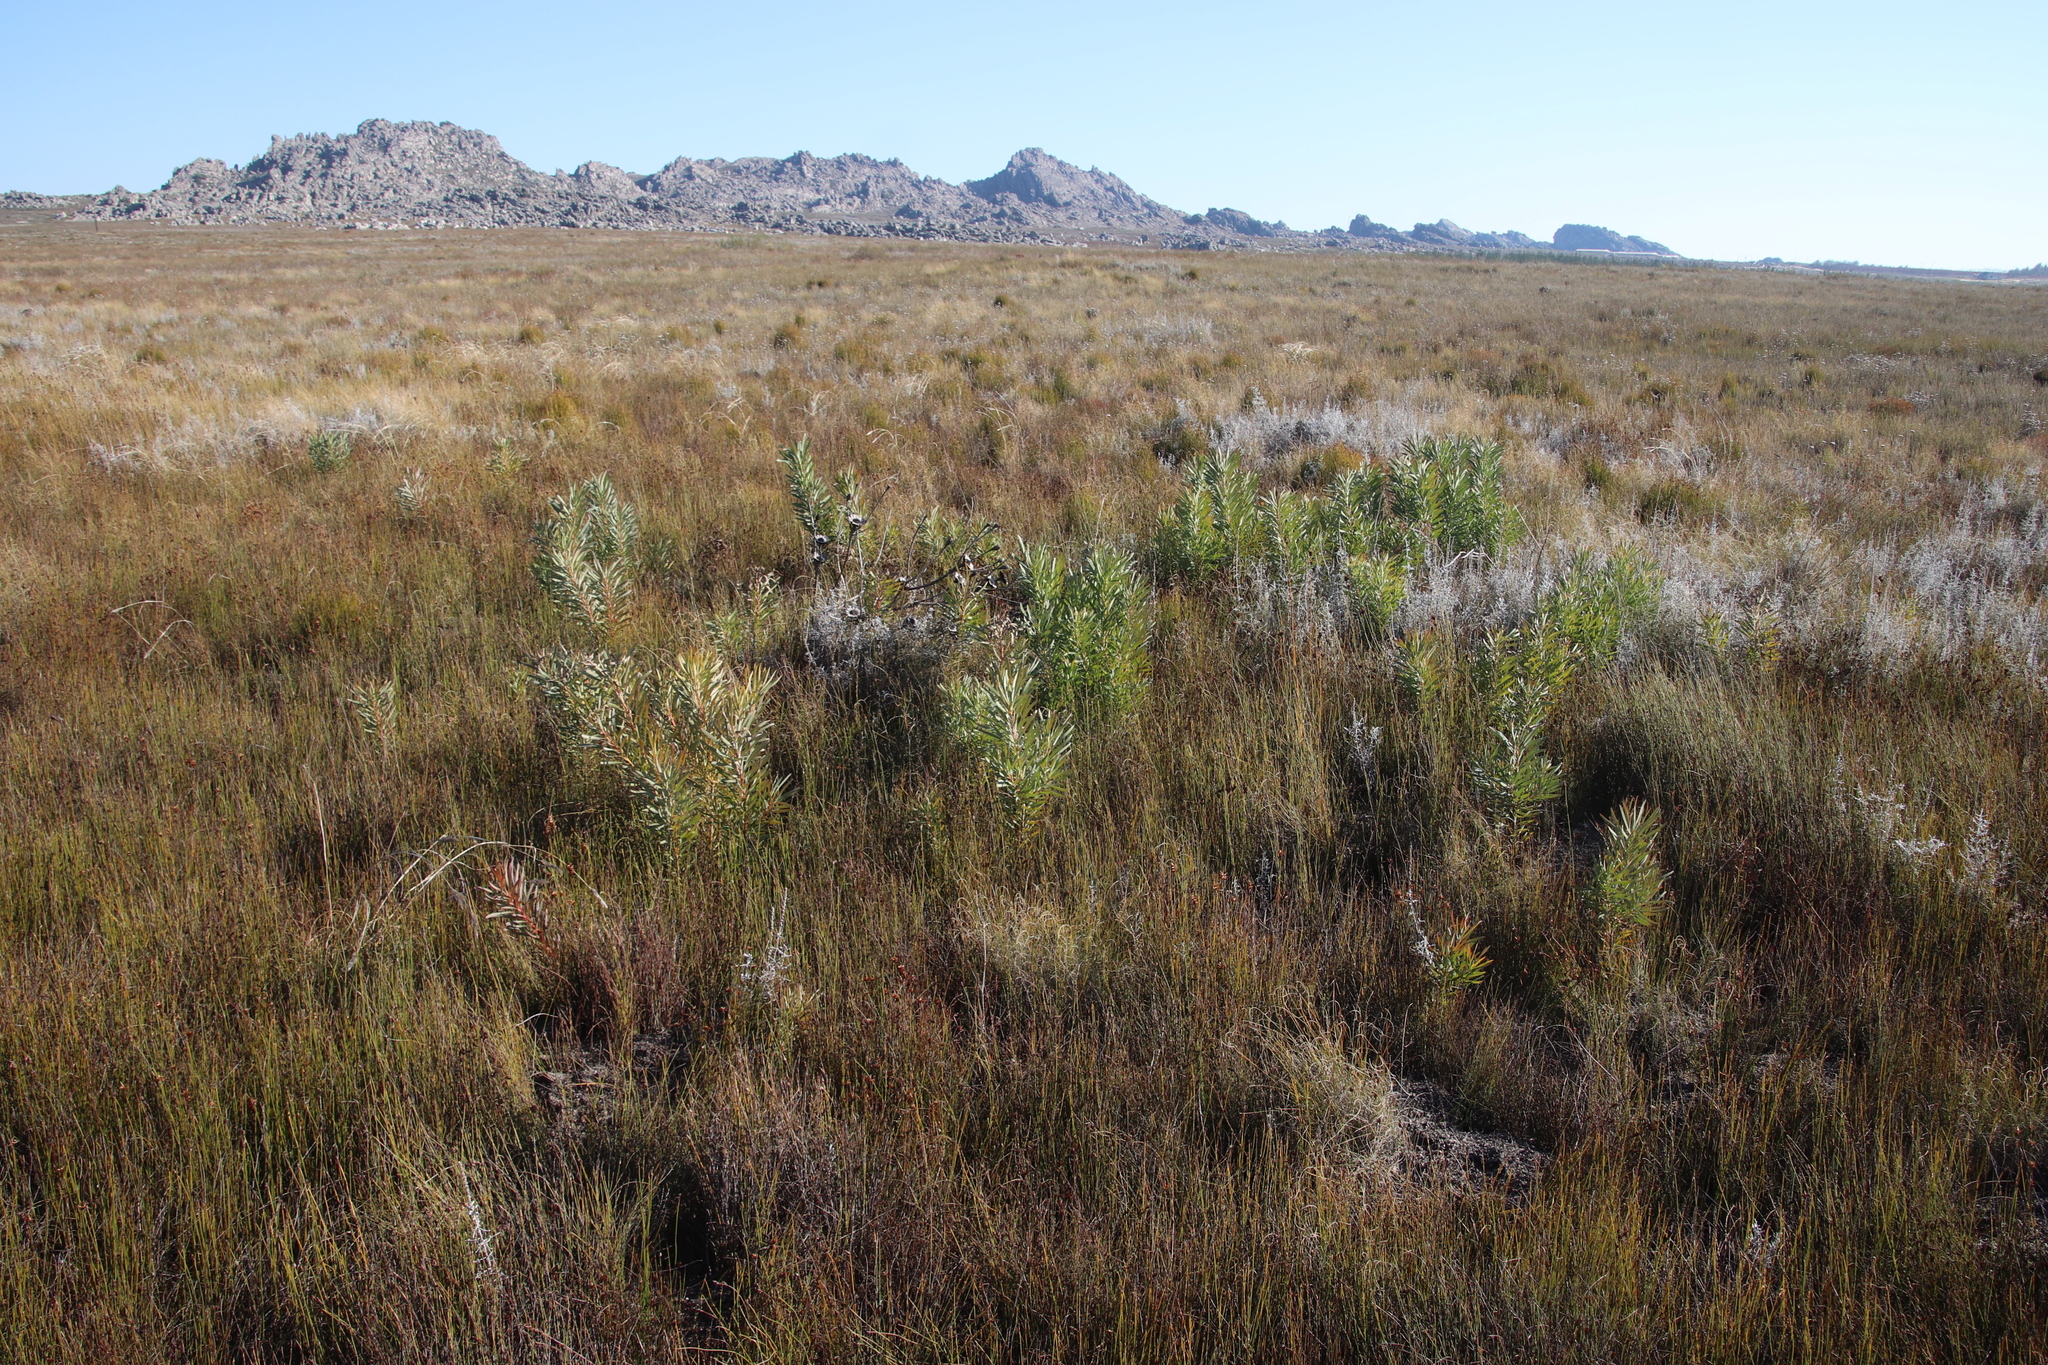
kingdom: Plantae
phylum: Tracheophyta
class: Magnoliopsida
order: Proteales
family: Proteaceae
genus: Protea
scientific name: Protea repens
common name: Sugarbush
